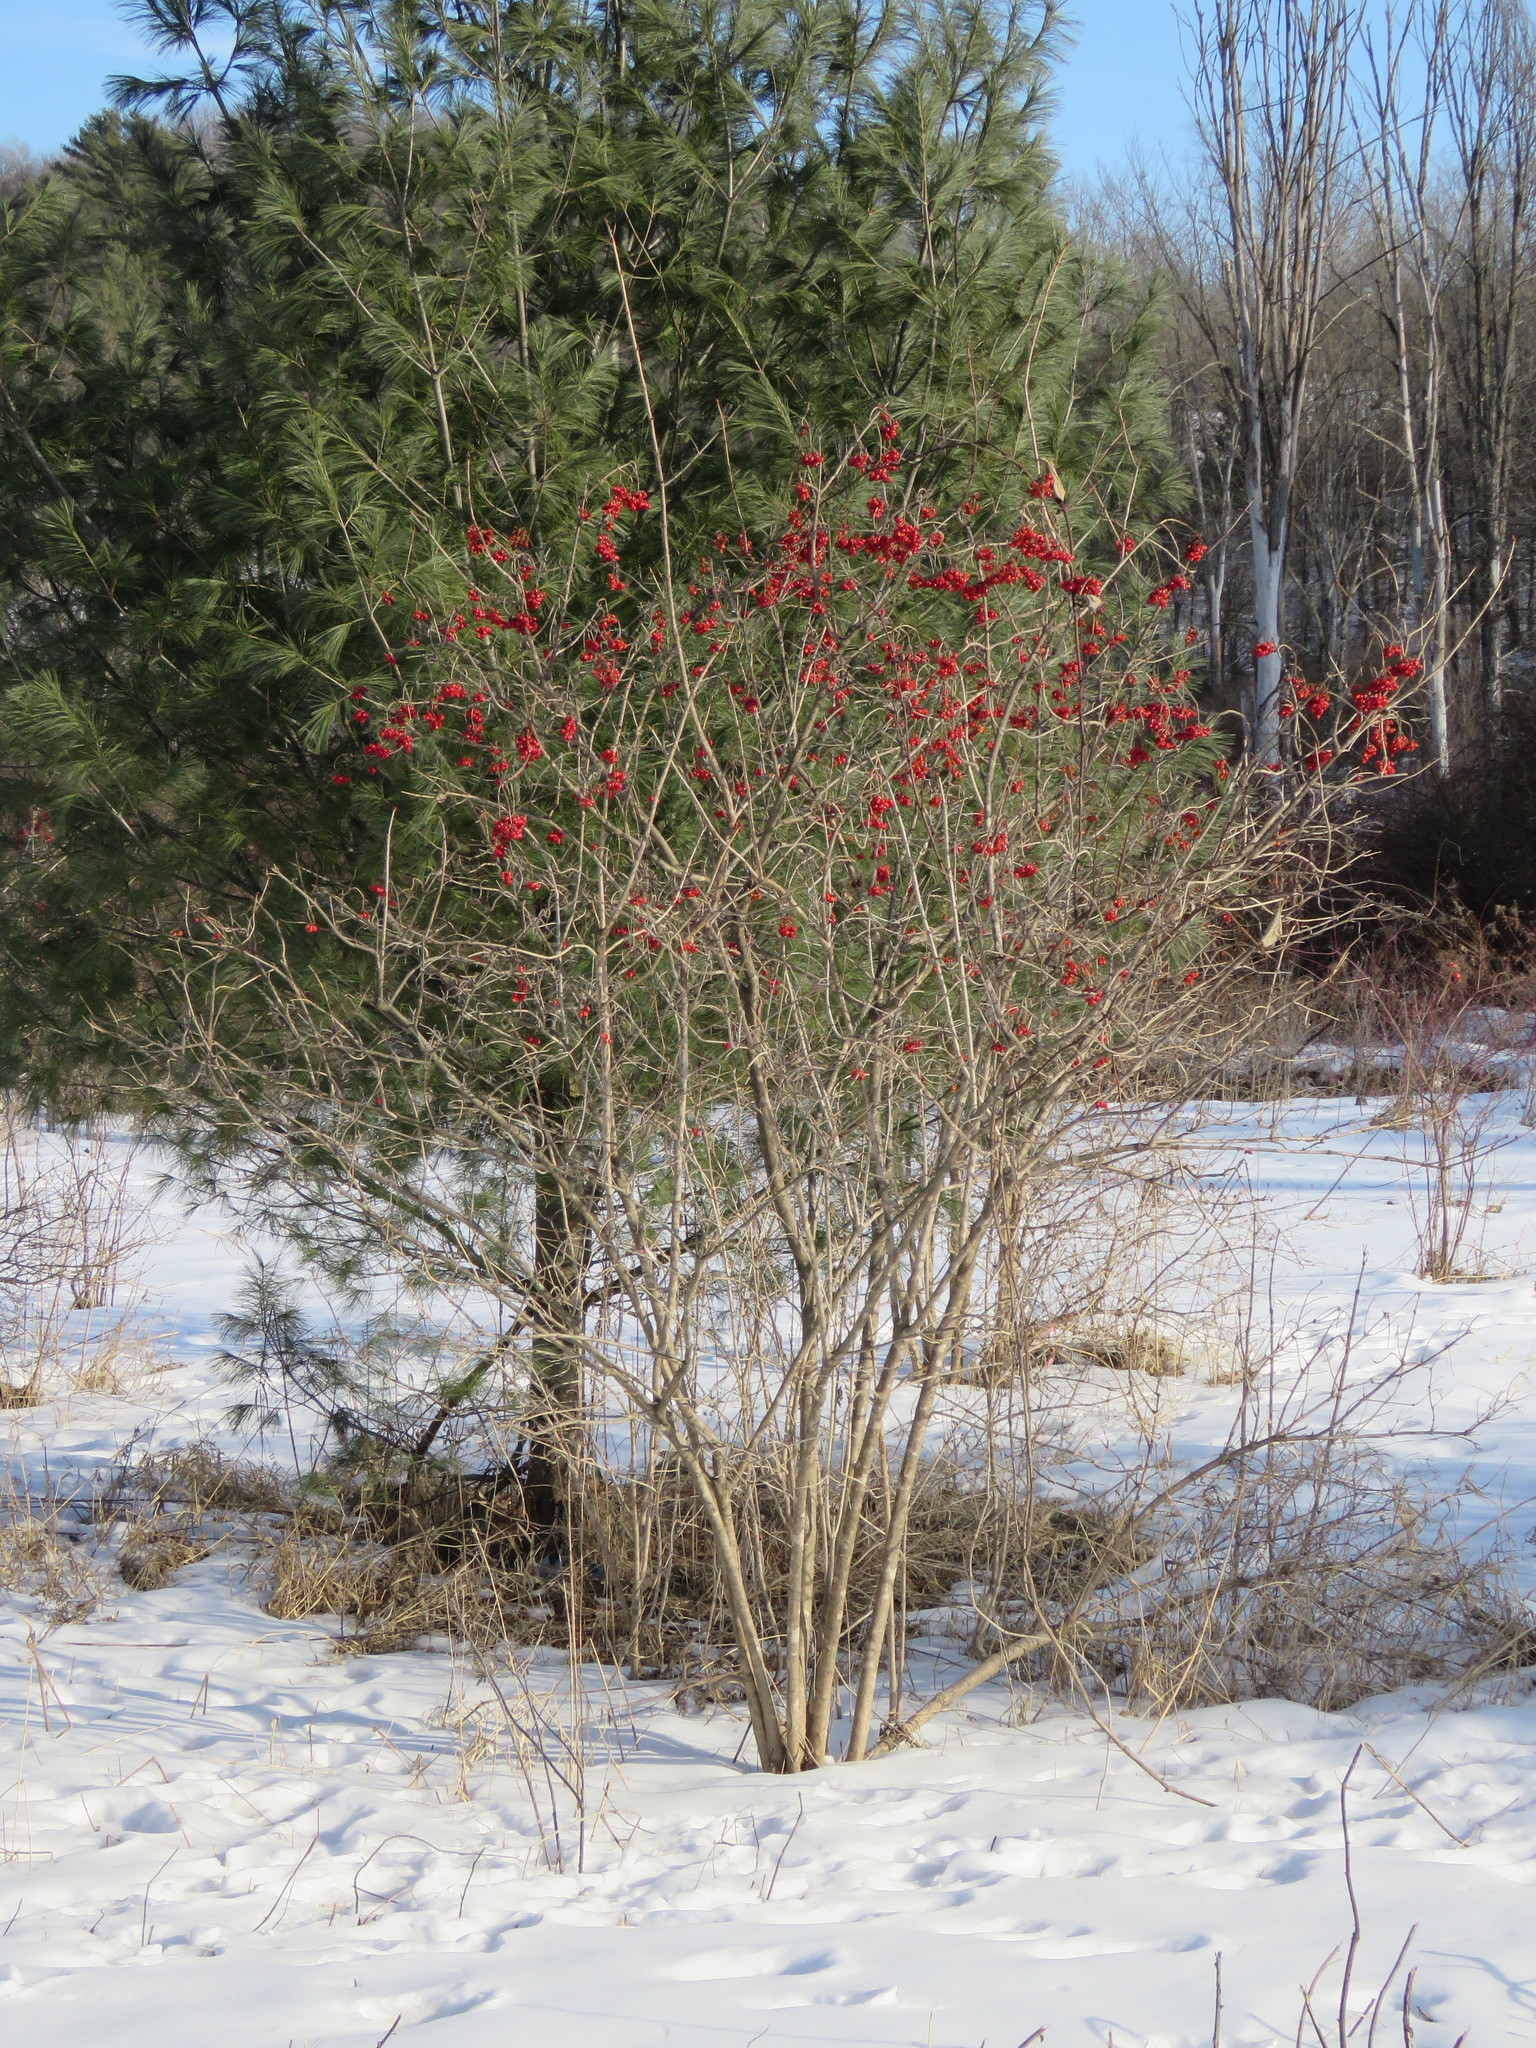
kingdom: Plantae
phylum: Tracheophyta
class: Magnoliopsida
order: Dipsacales
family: Viburnaceae
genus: Viburnum
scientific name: Viburnum opulus
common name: Guelder-rose
